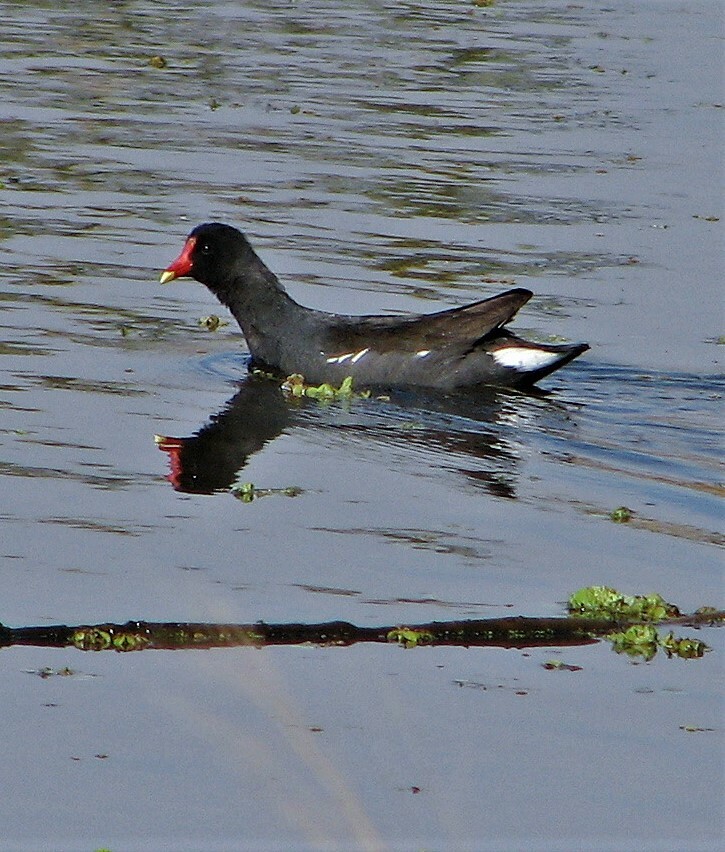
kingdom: Animalia
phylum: Chordata
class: Aves
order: Gruiformes
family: Rallidae
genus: Gallinula
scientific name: Gallinula chloropus
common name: Common moorhen
